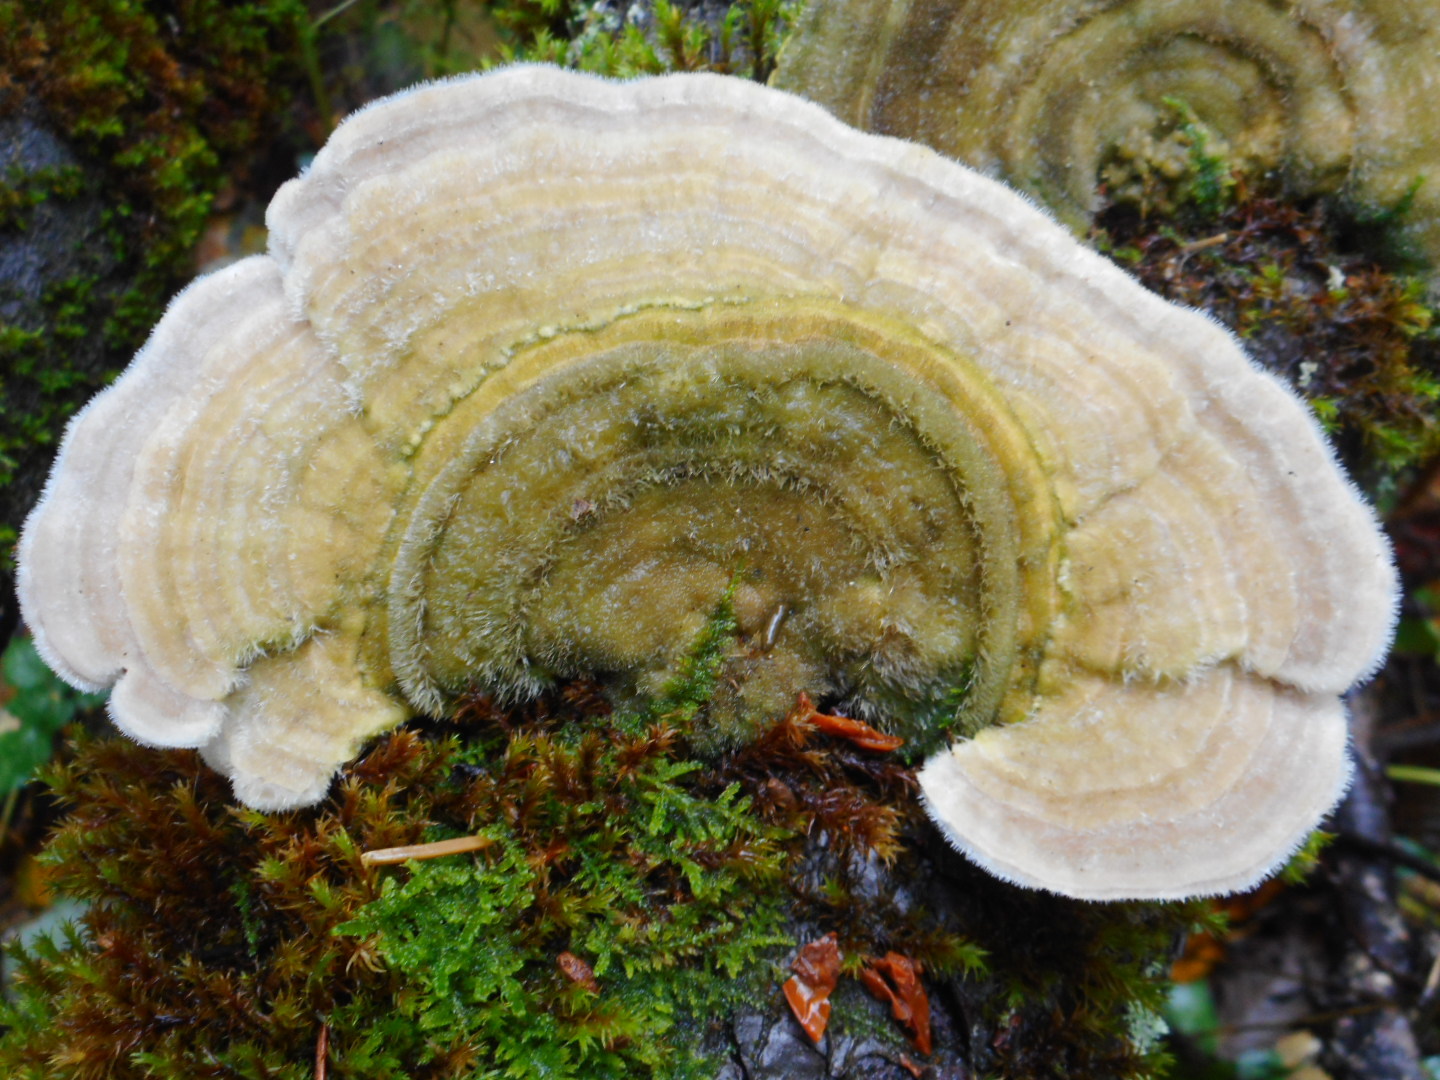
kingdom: Fungi
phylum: Basidiomycota
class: Agaricomycetes
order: Polyporales
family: Polyporaceae
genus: Trametes
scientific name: Trametes hirsuta
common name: Hairy bracket
